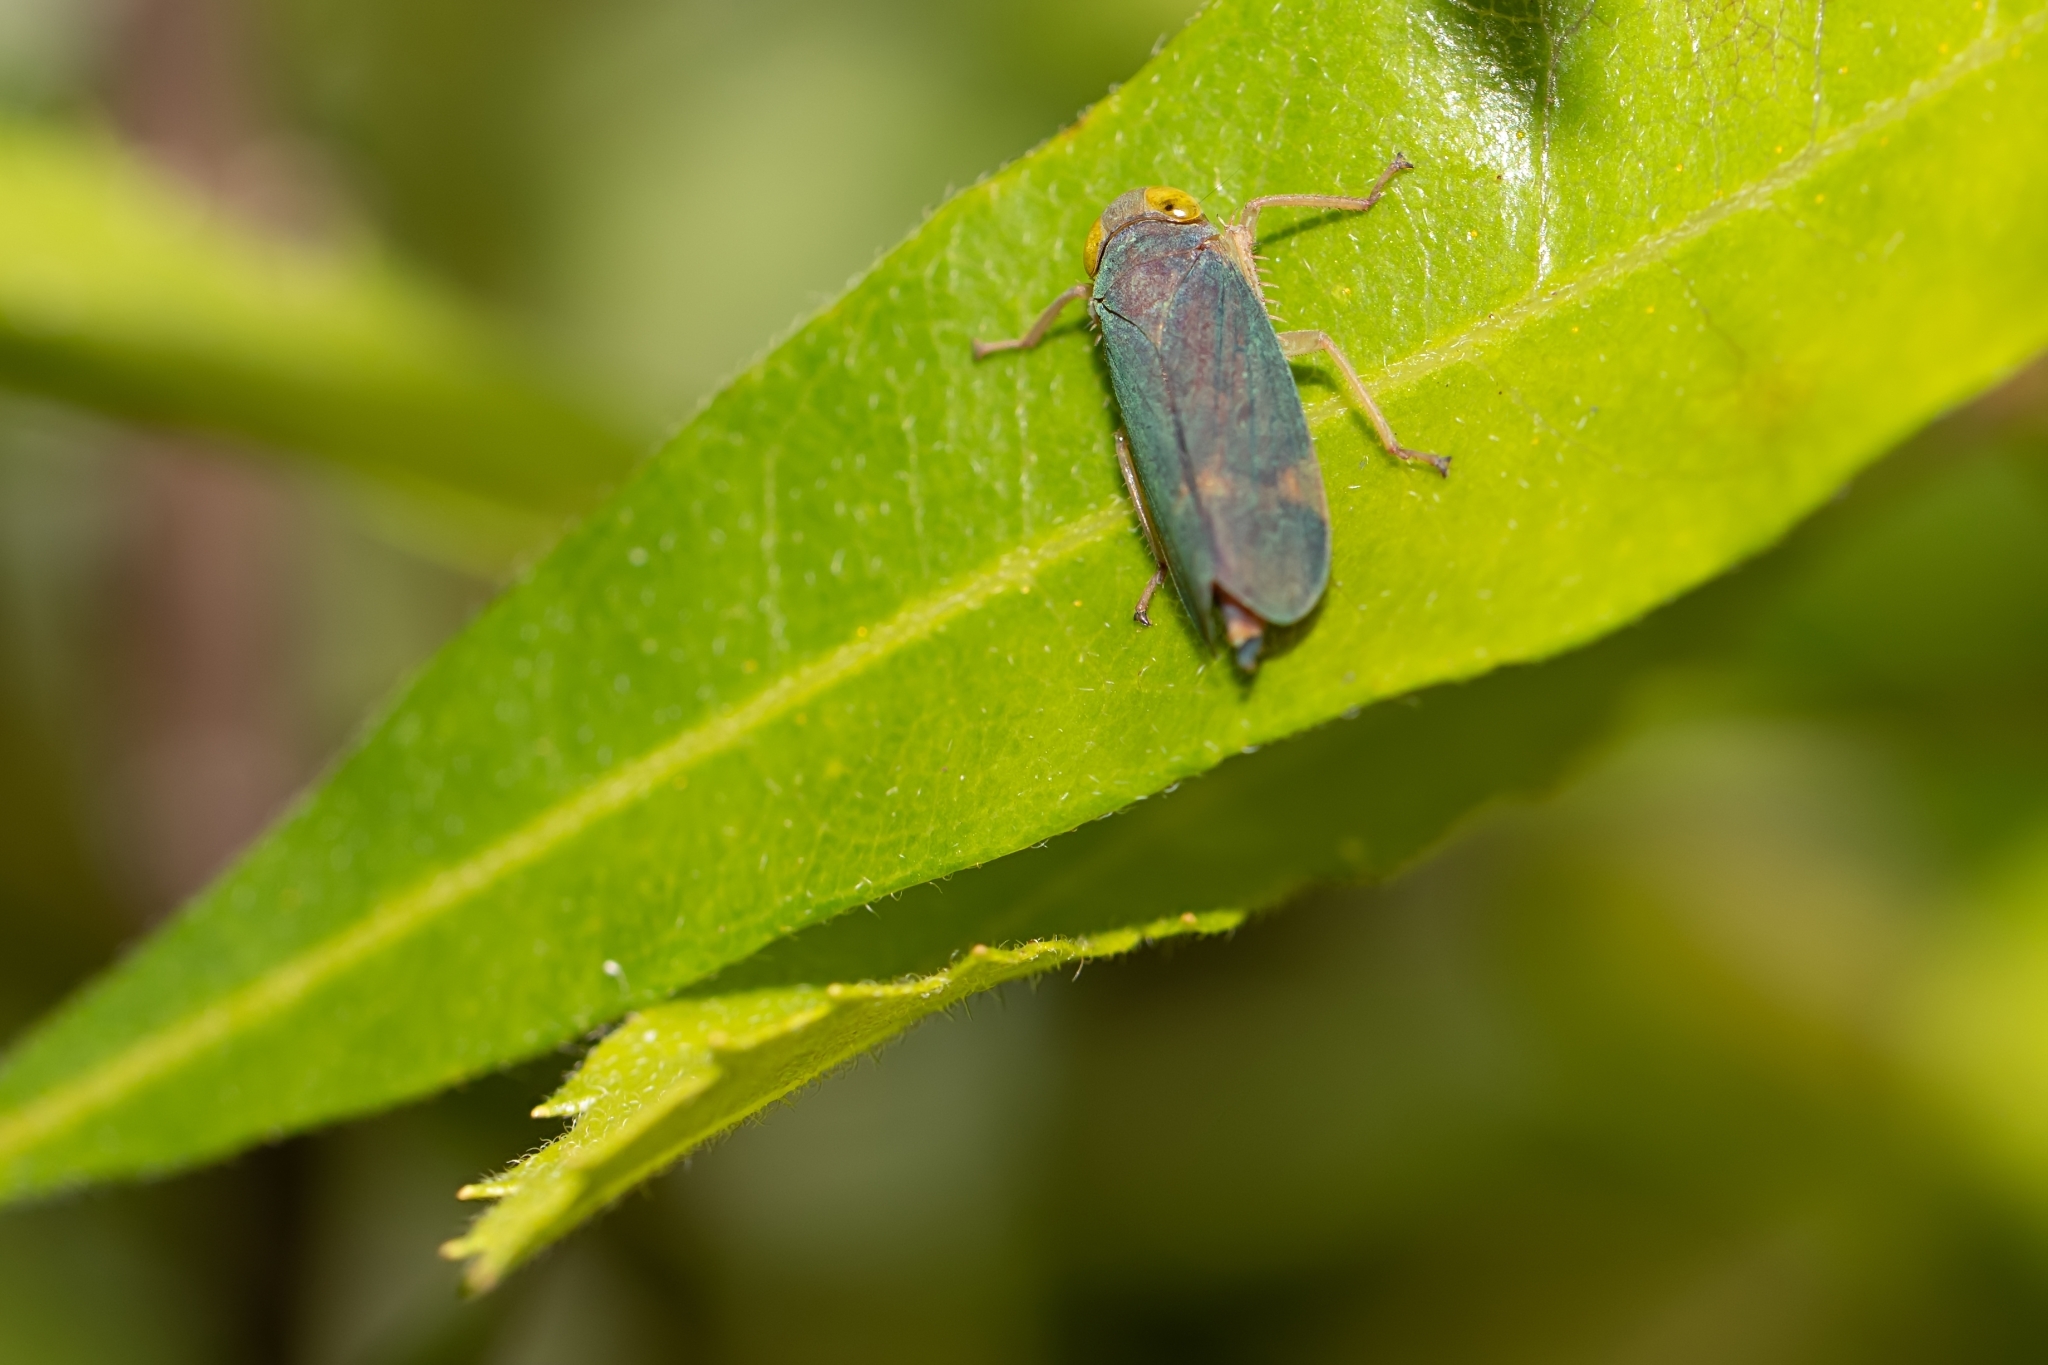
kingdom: Animalia
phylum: Arthropoda
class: Insecta
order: Hemiptera
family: Cicadellidae
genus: Jikradia
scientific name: Jikradia olitoria
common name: Coppery leafhopper
